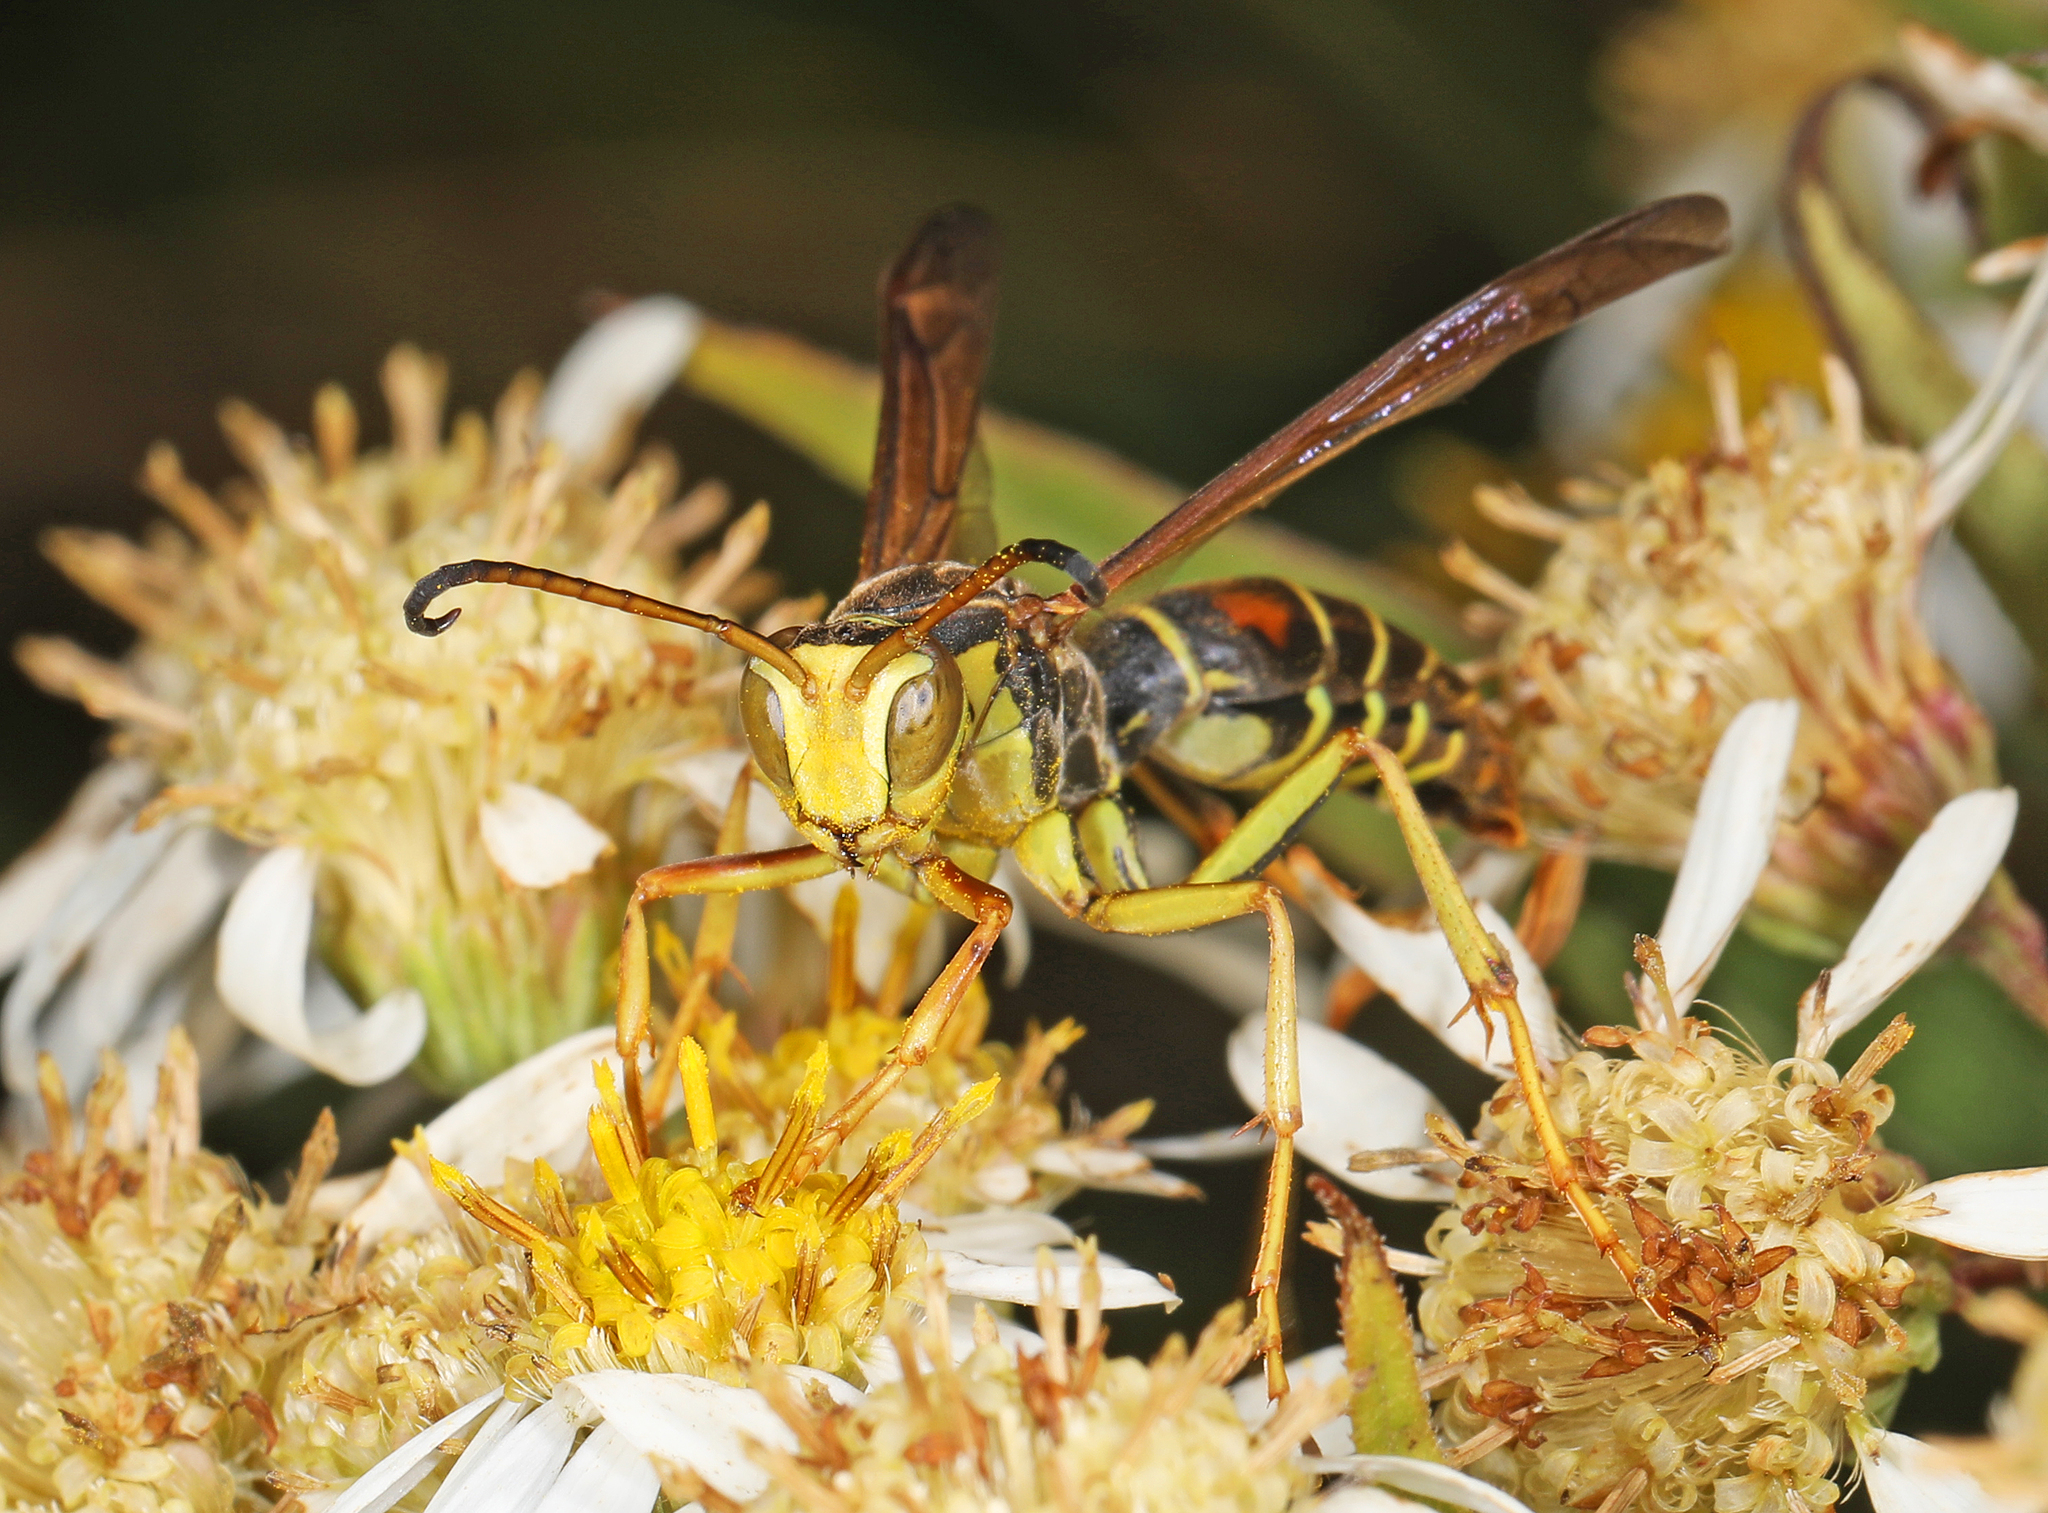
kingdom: Animalia
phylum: Arthropoda
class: Insecta
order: Hymenoptera
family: Eumenidae
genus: Polistes
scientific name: Polistes fuscatus
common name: Dark paper wasp
